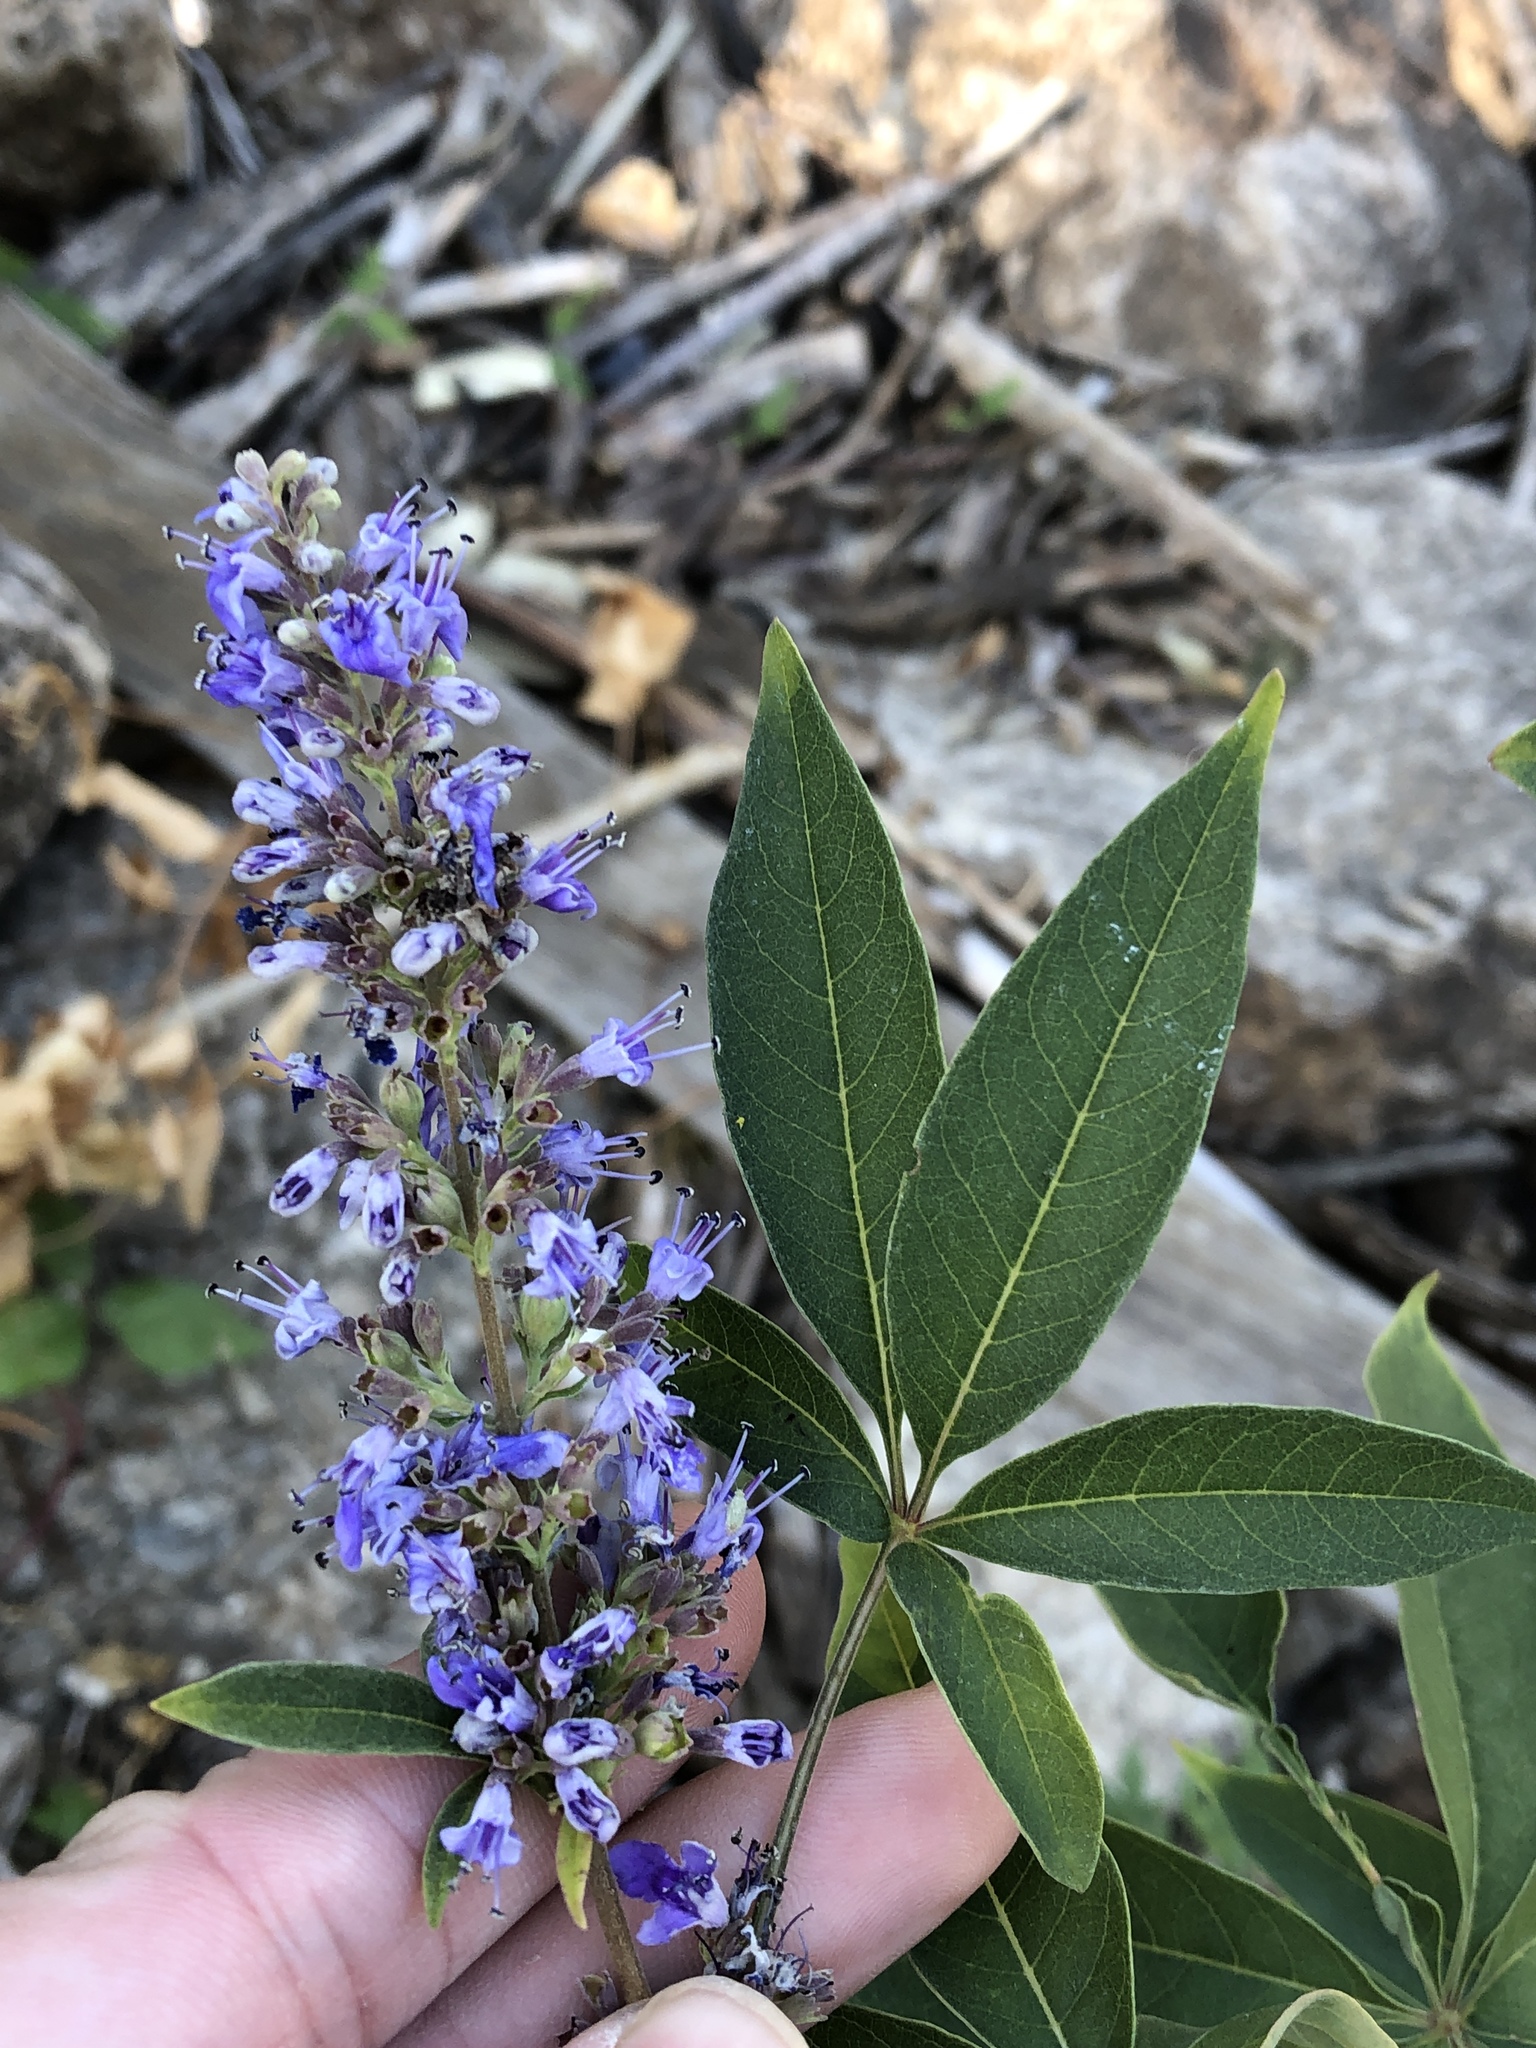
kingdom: Plantae
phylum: Tracheophyta
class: Magnoliopsida
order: Lamiales
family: Lamiaceae
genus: Vitex
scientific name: Vitex agnus-castus
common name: Chasteberry
